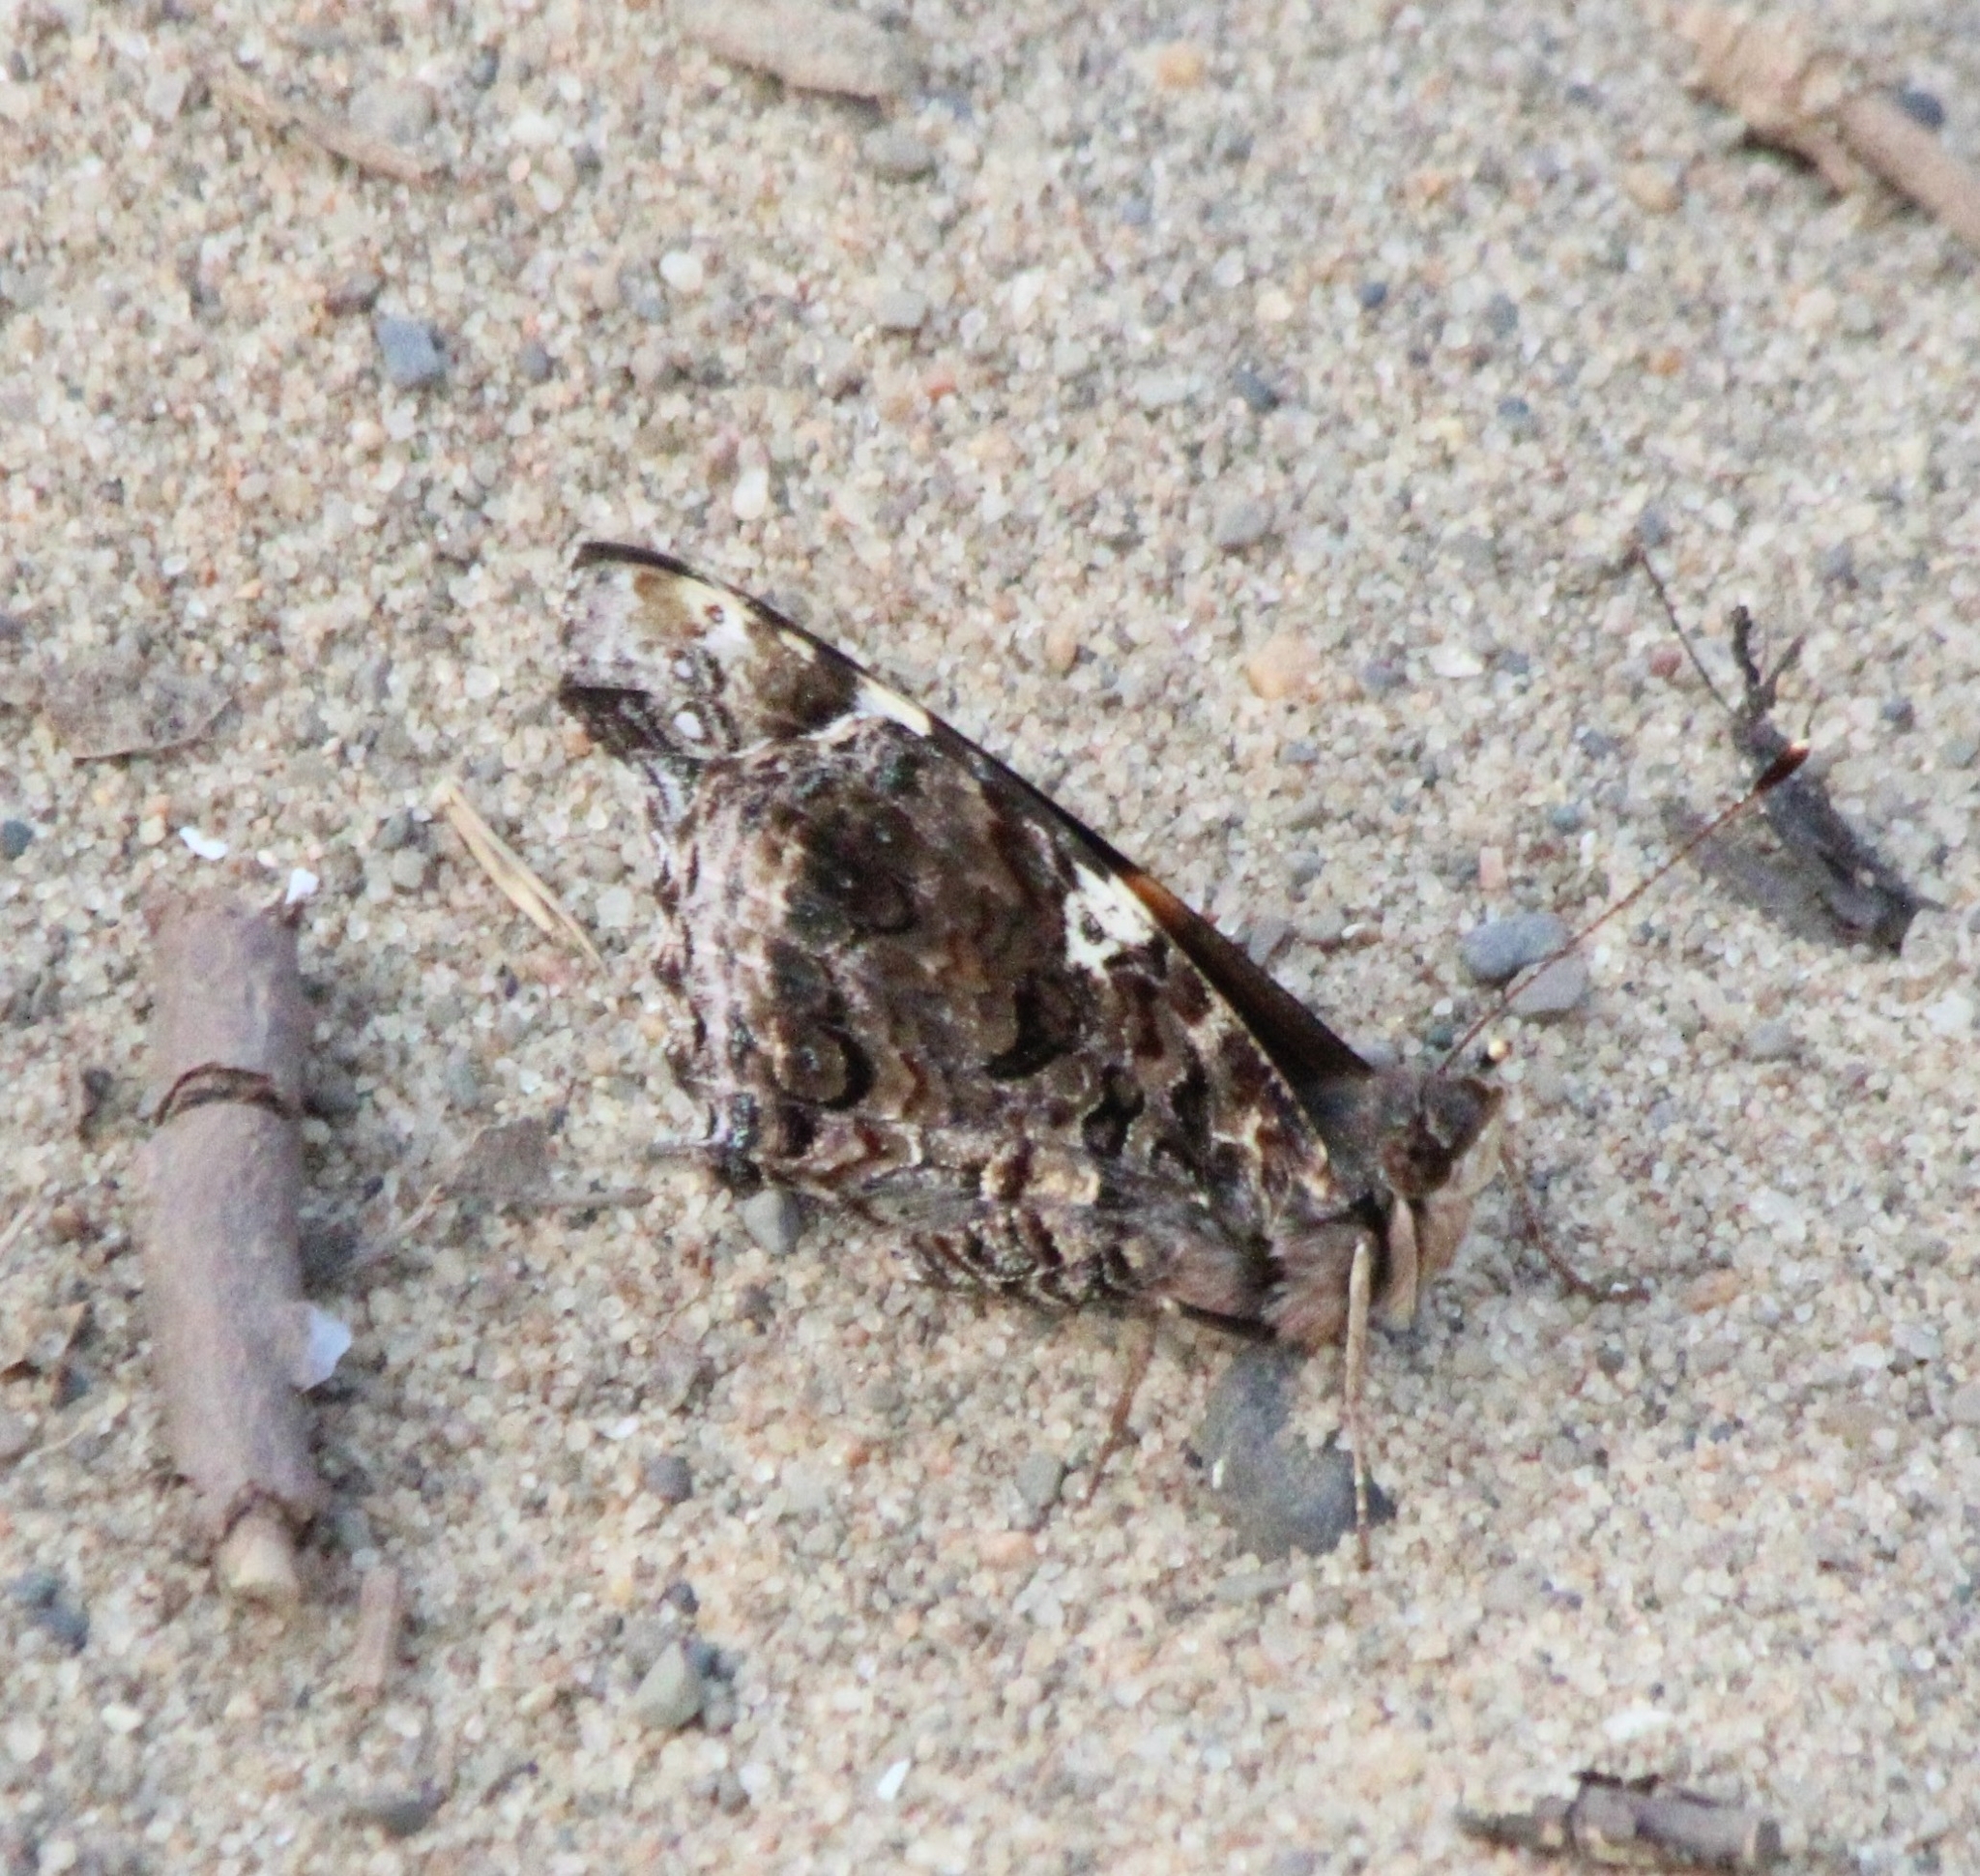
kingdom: Animalia
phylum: Arthropoda
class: Insecta
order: Lepidoptera
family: Nymphalidae
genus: Vanessa
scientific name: Vanessa atalanta
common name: Red admiral
